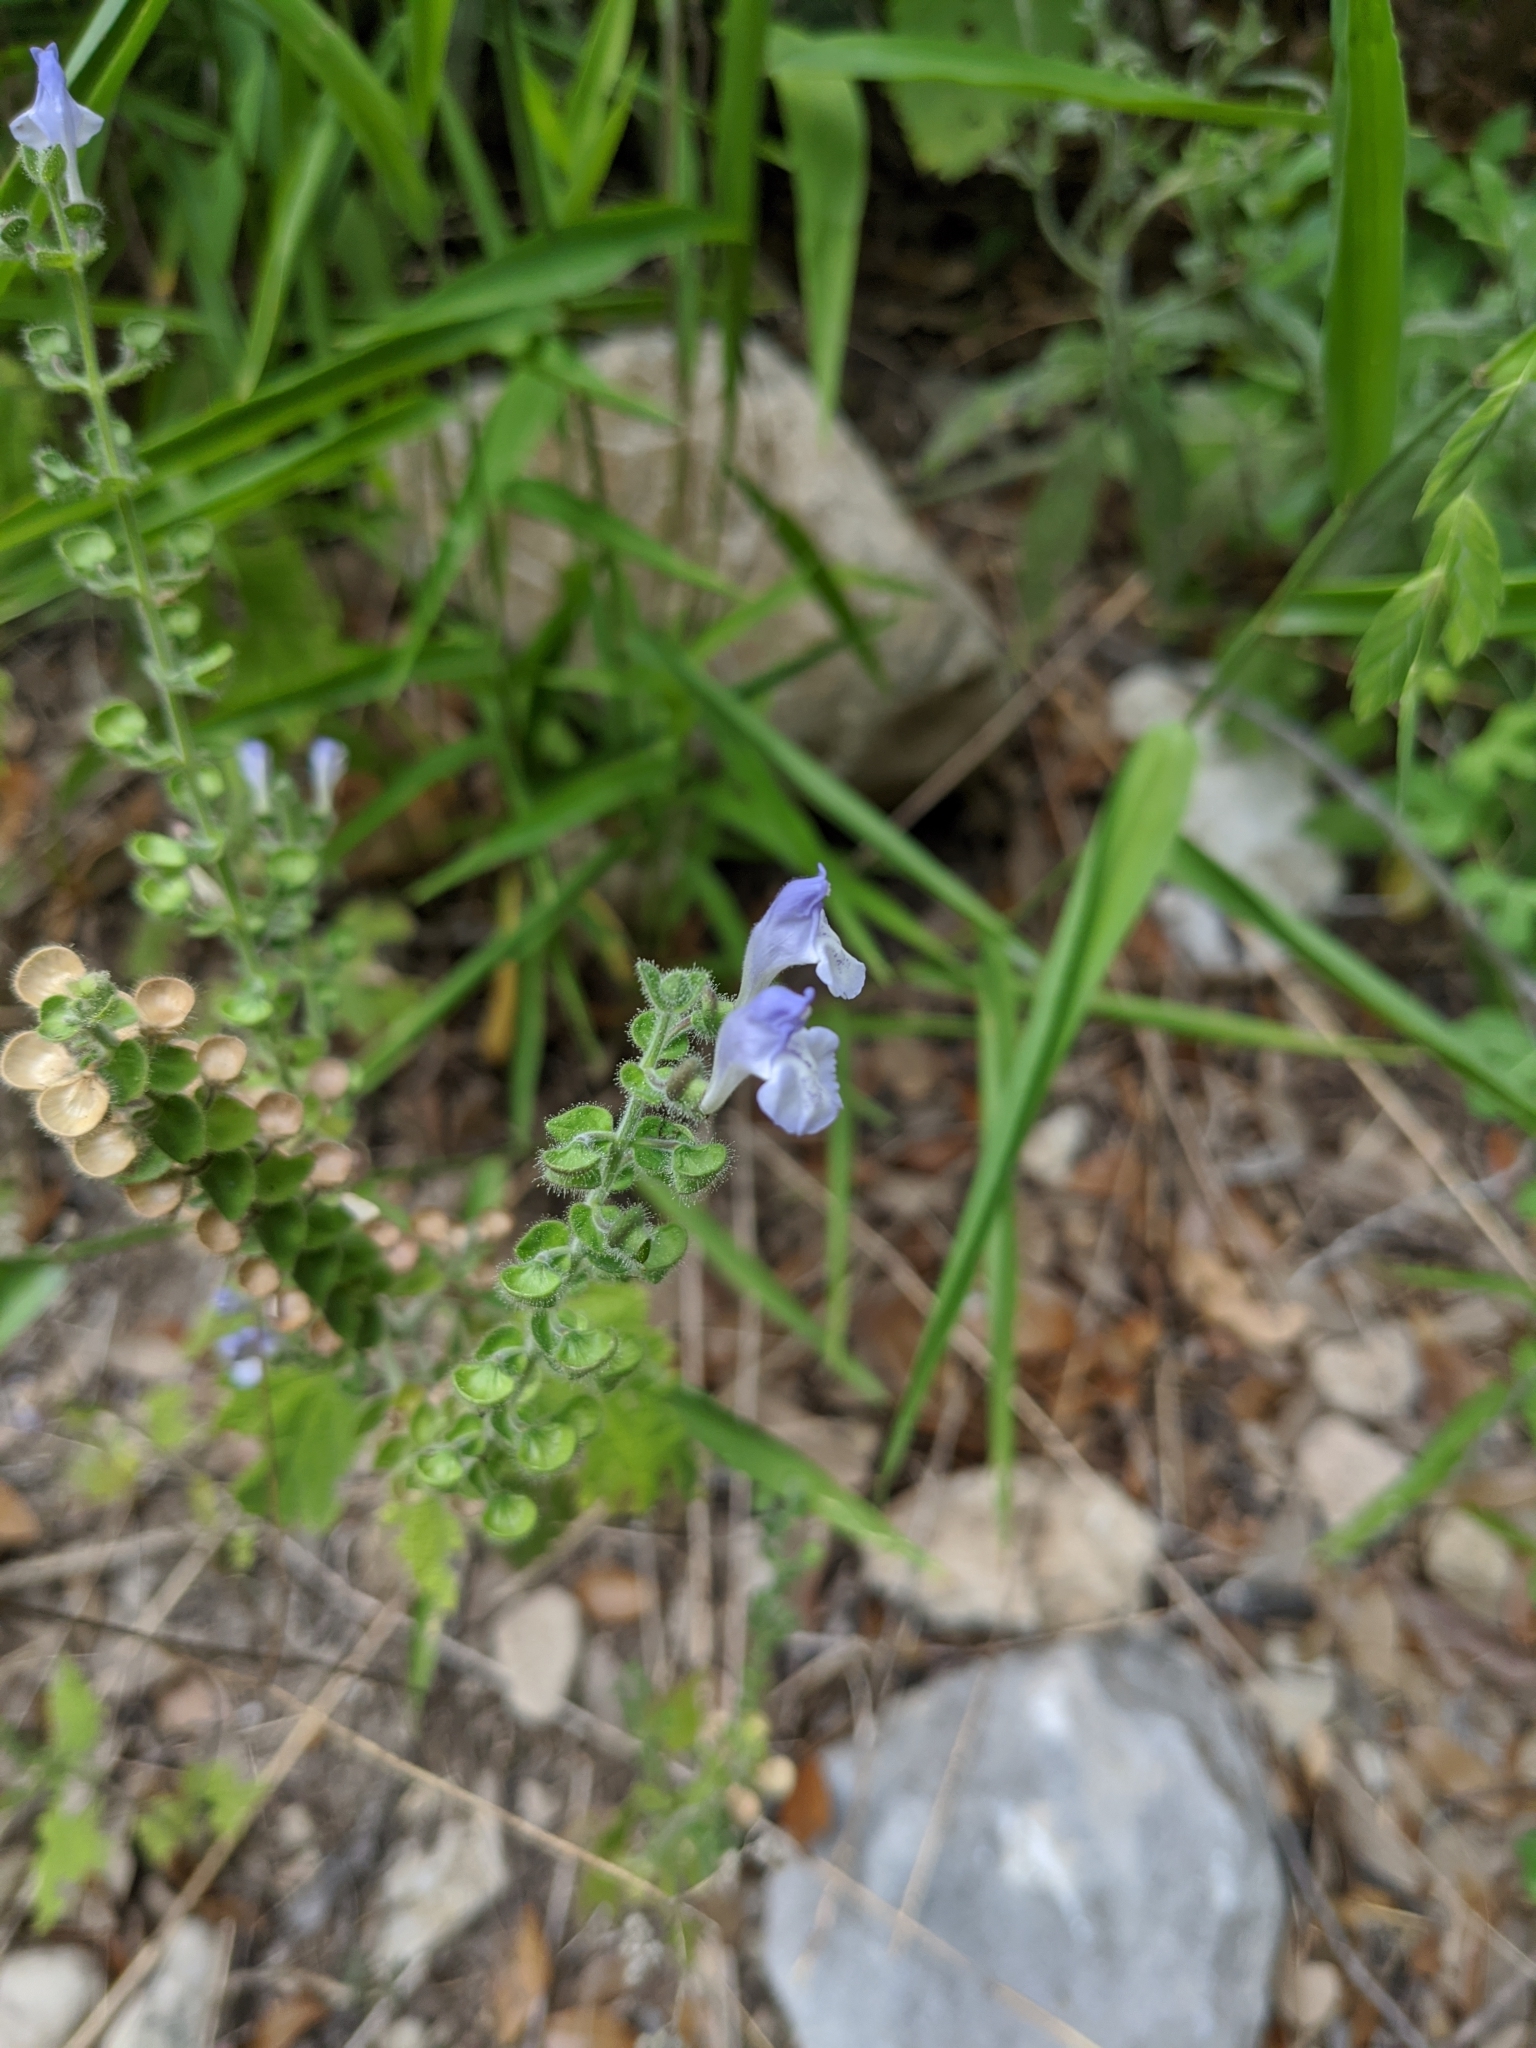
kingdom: Plantae
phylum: Tracheophyta
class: Magnoliopsida
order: Lamiales
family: Lamiaceae
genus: Scutellaria
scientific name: Scutellaria ovata
